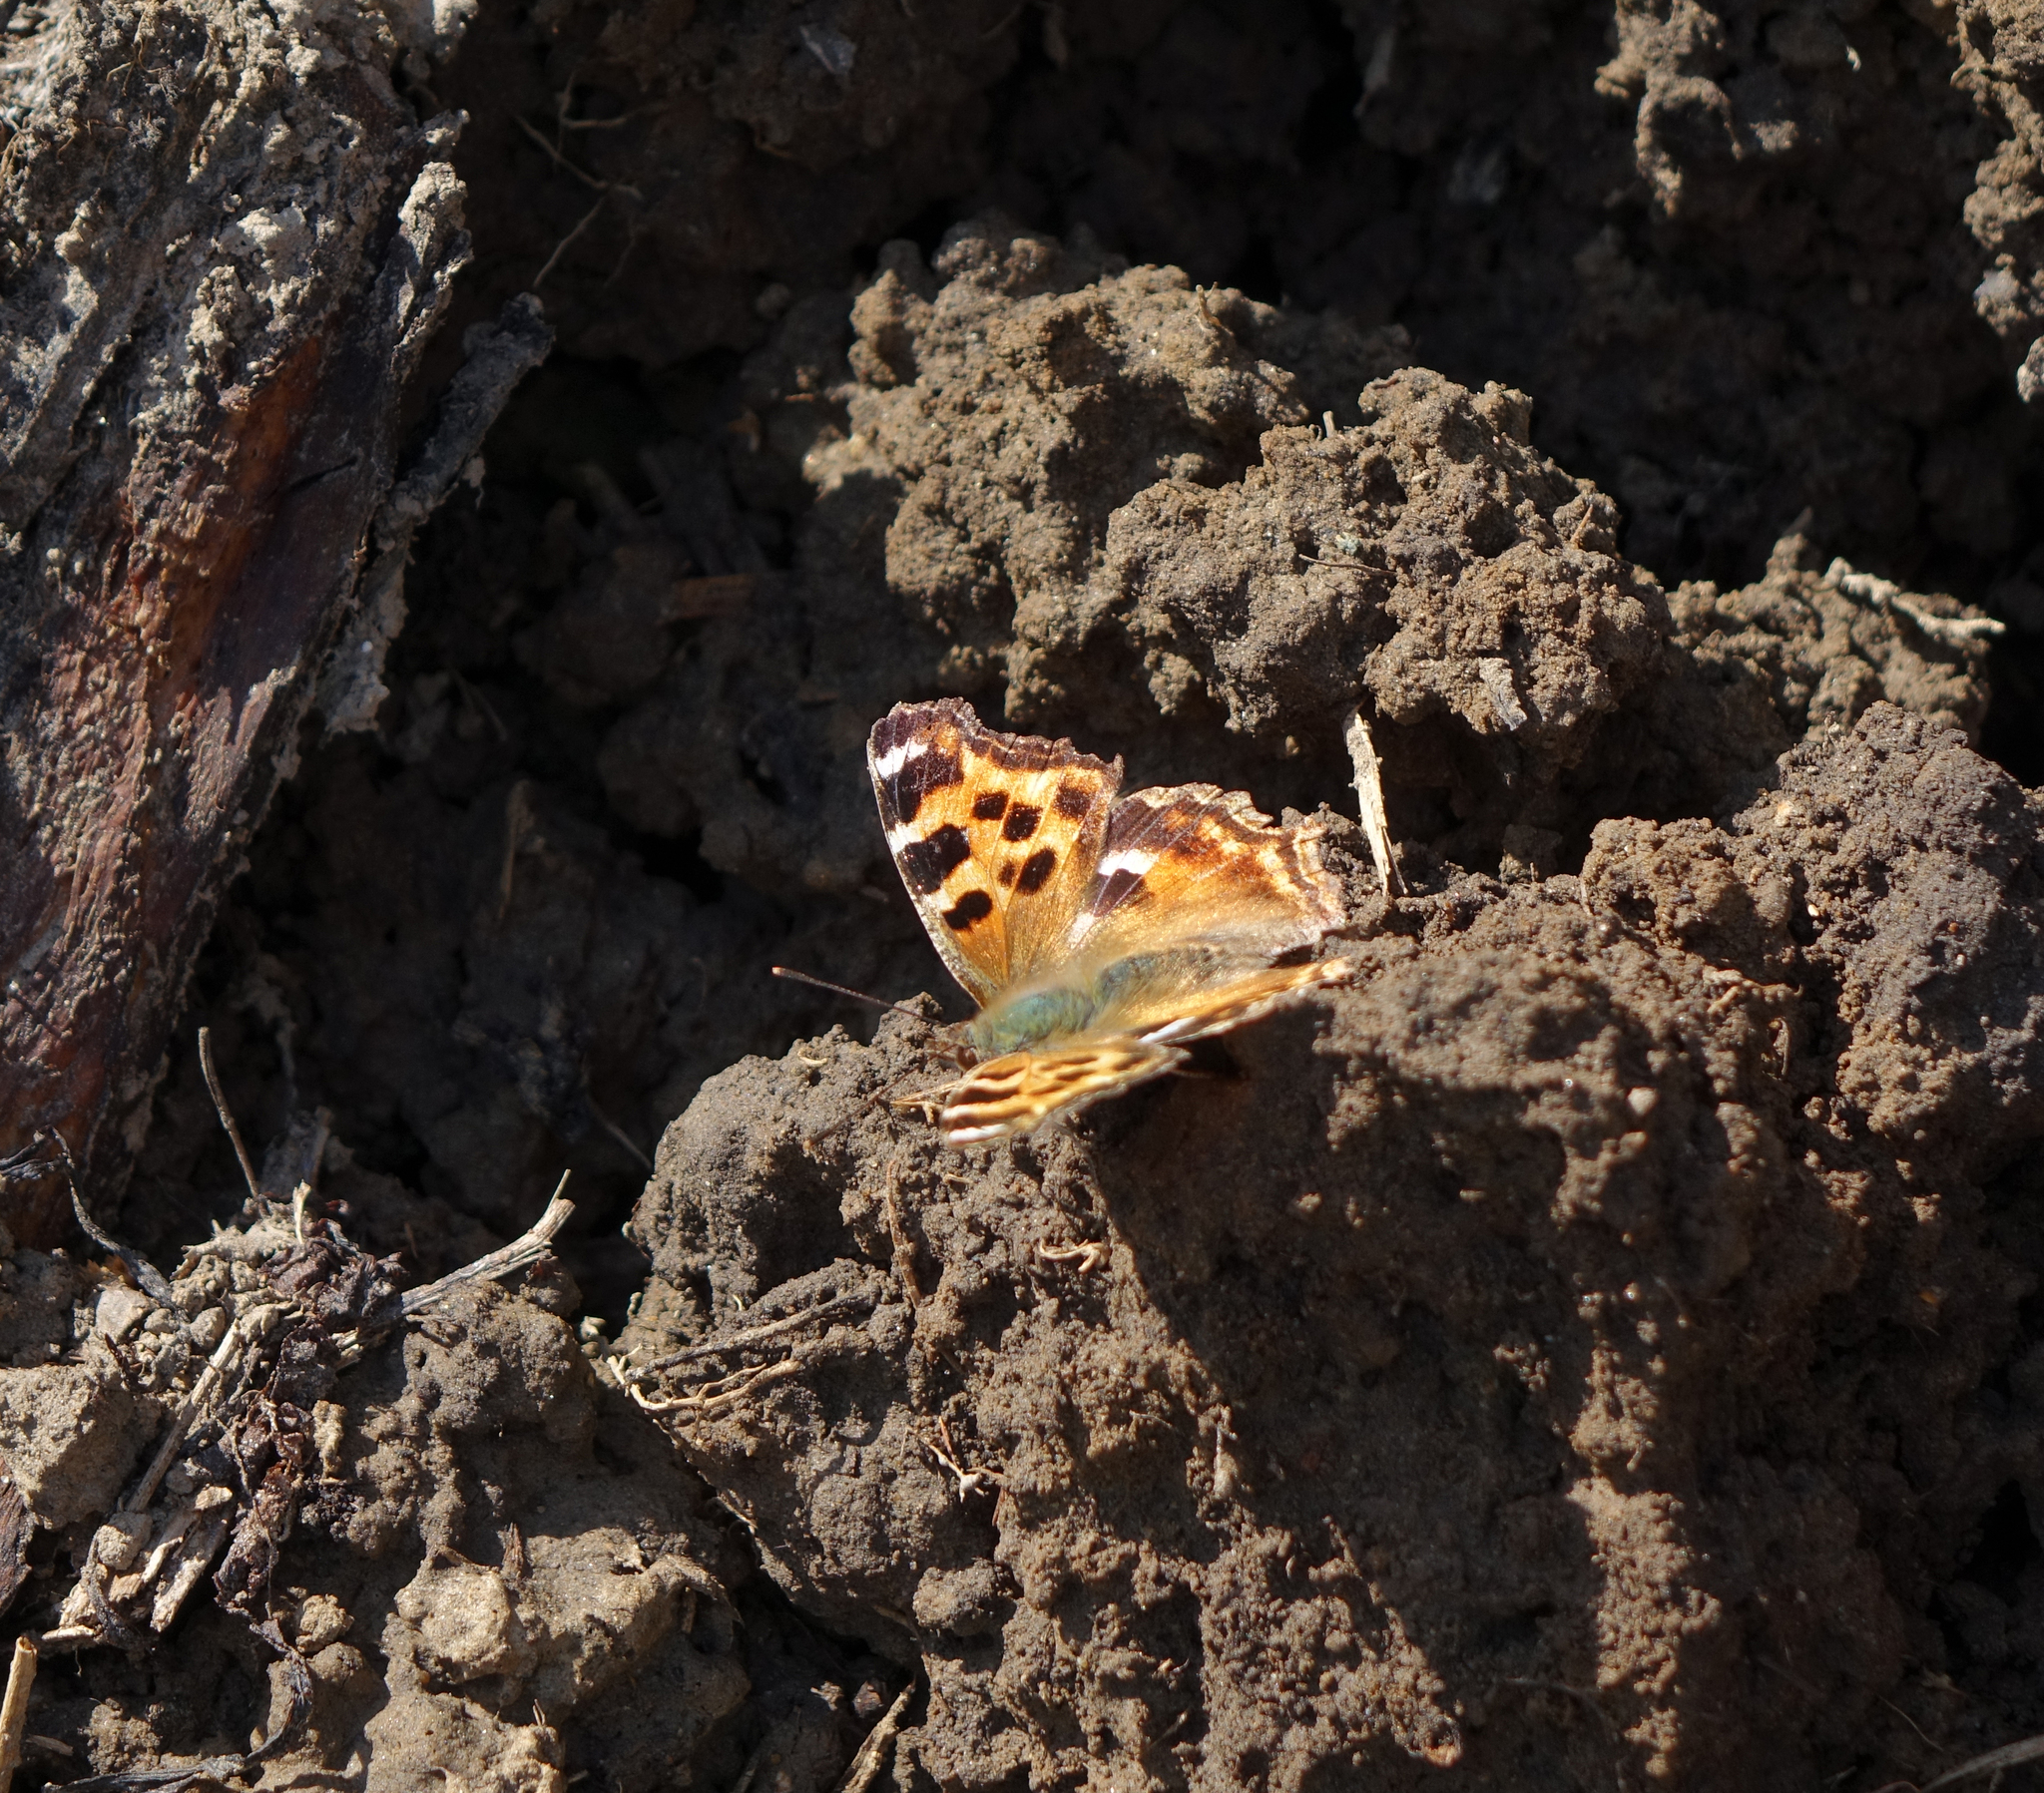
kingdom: Animalia
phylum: Arthropoda
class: Insecta
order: Lepidoptera
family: Nymphalidae
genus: Polygonia
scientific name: Polygonia vaualbum
